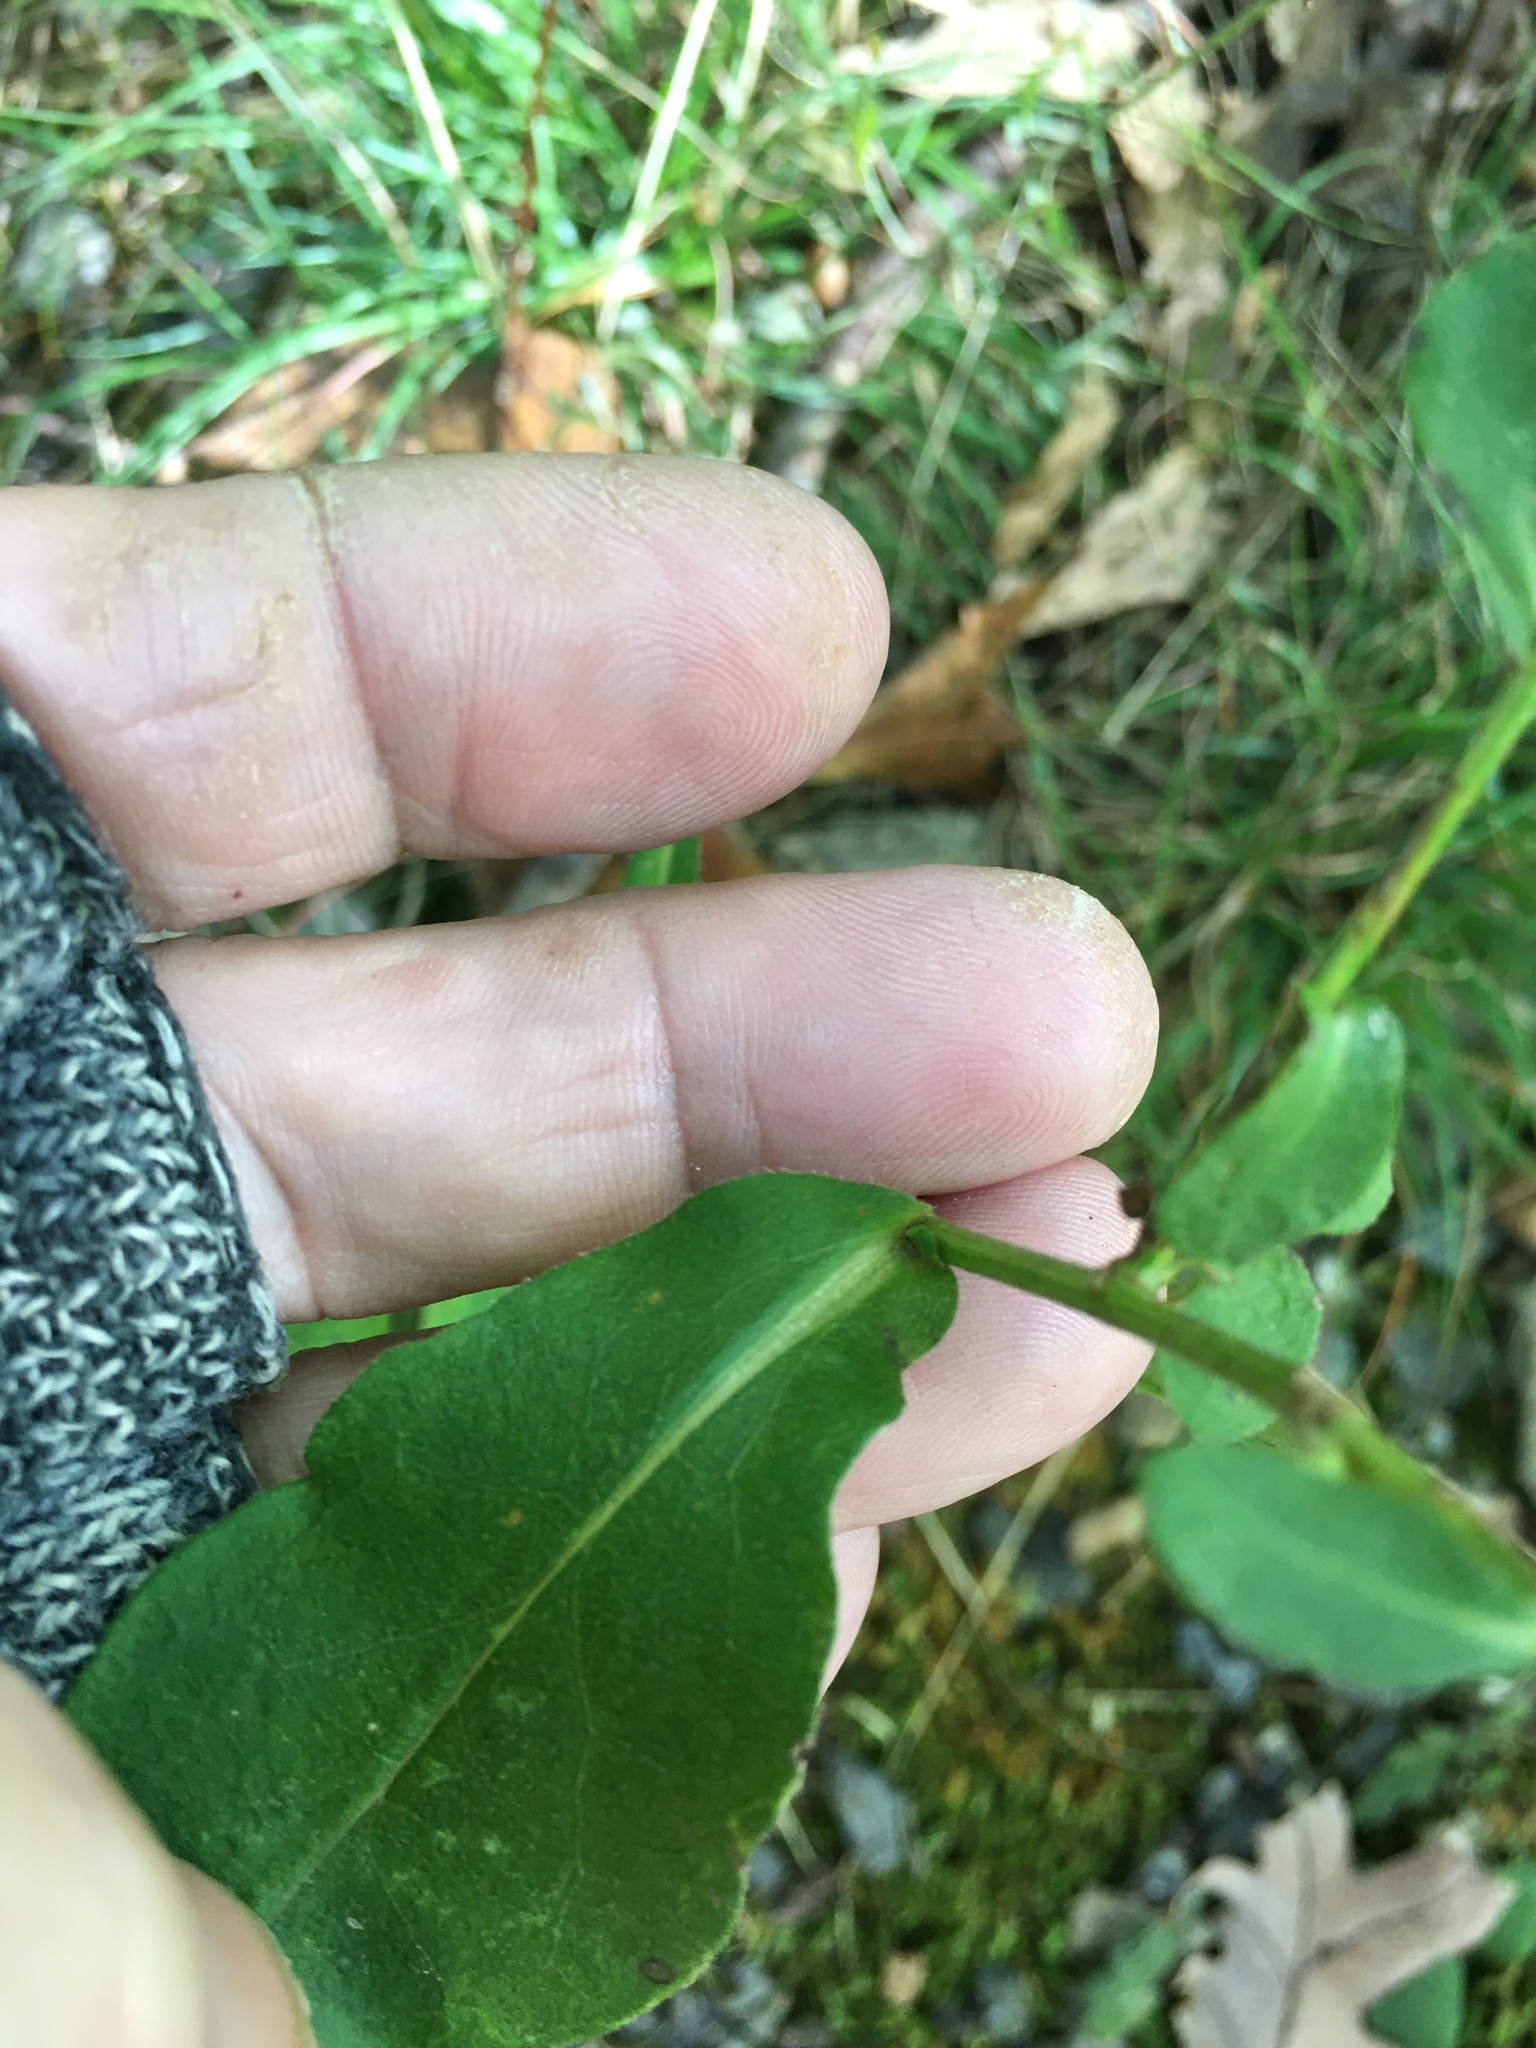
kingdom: Plantae
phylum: Tracheophyta
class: Magnoliopsida
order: Asterales
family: Asteraceae
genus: Symphyotrichum
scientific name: Symphyotrichum laeve
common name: Glaucous aster
